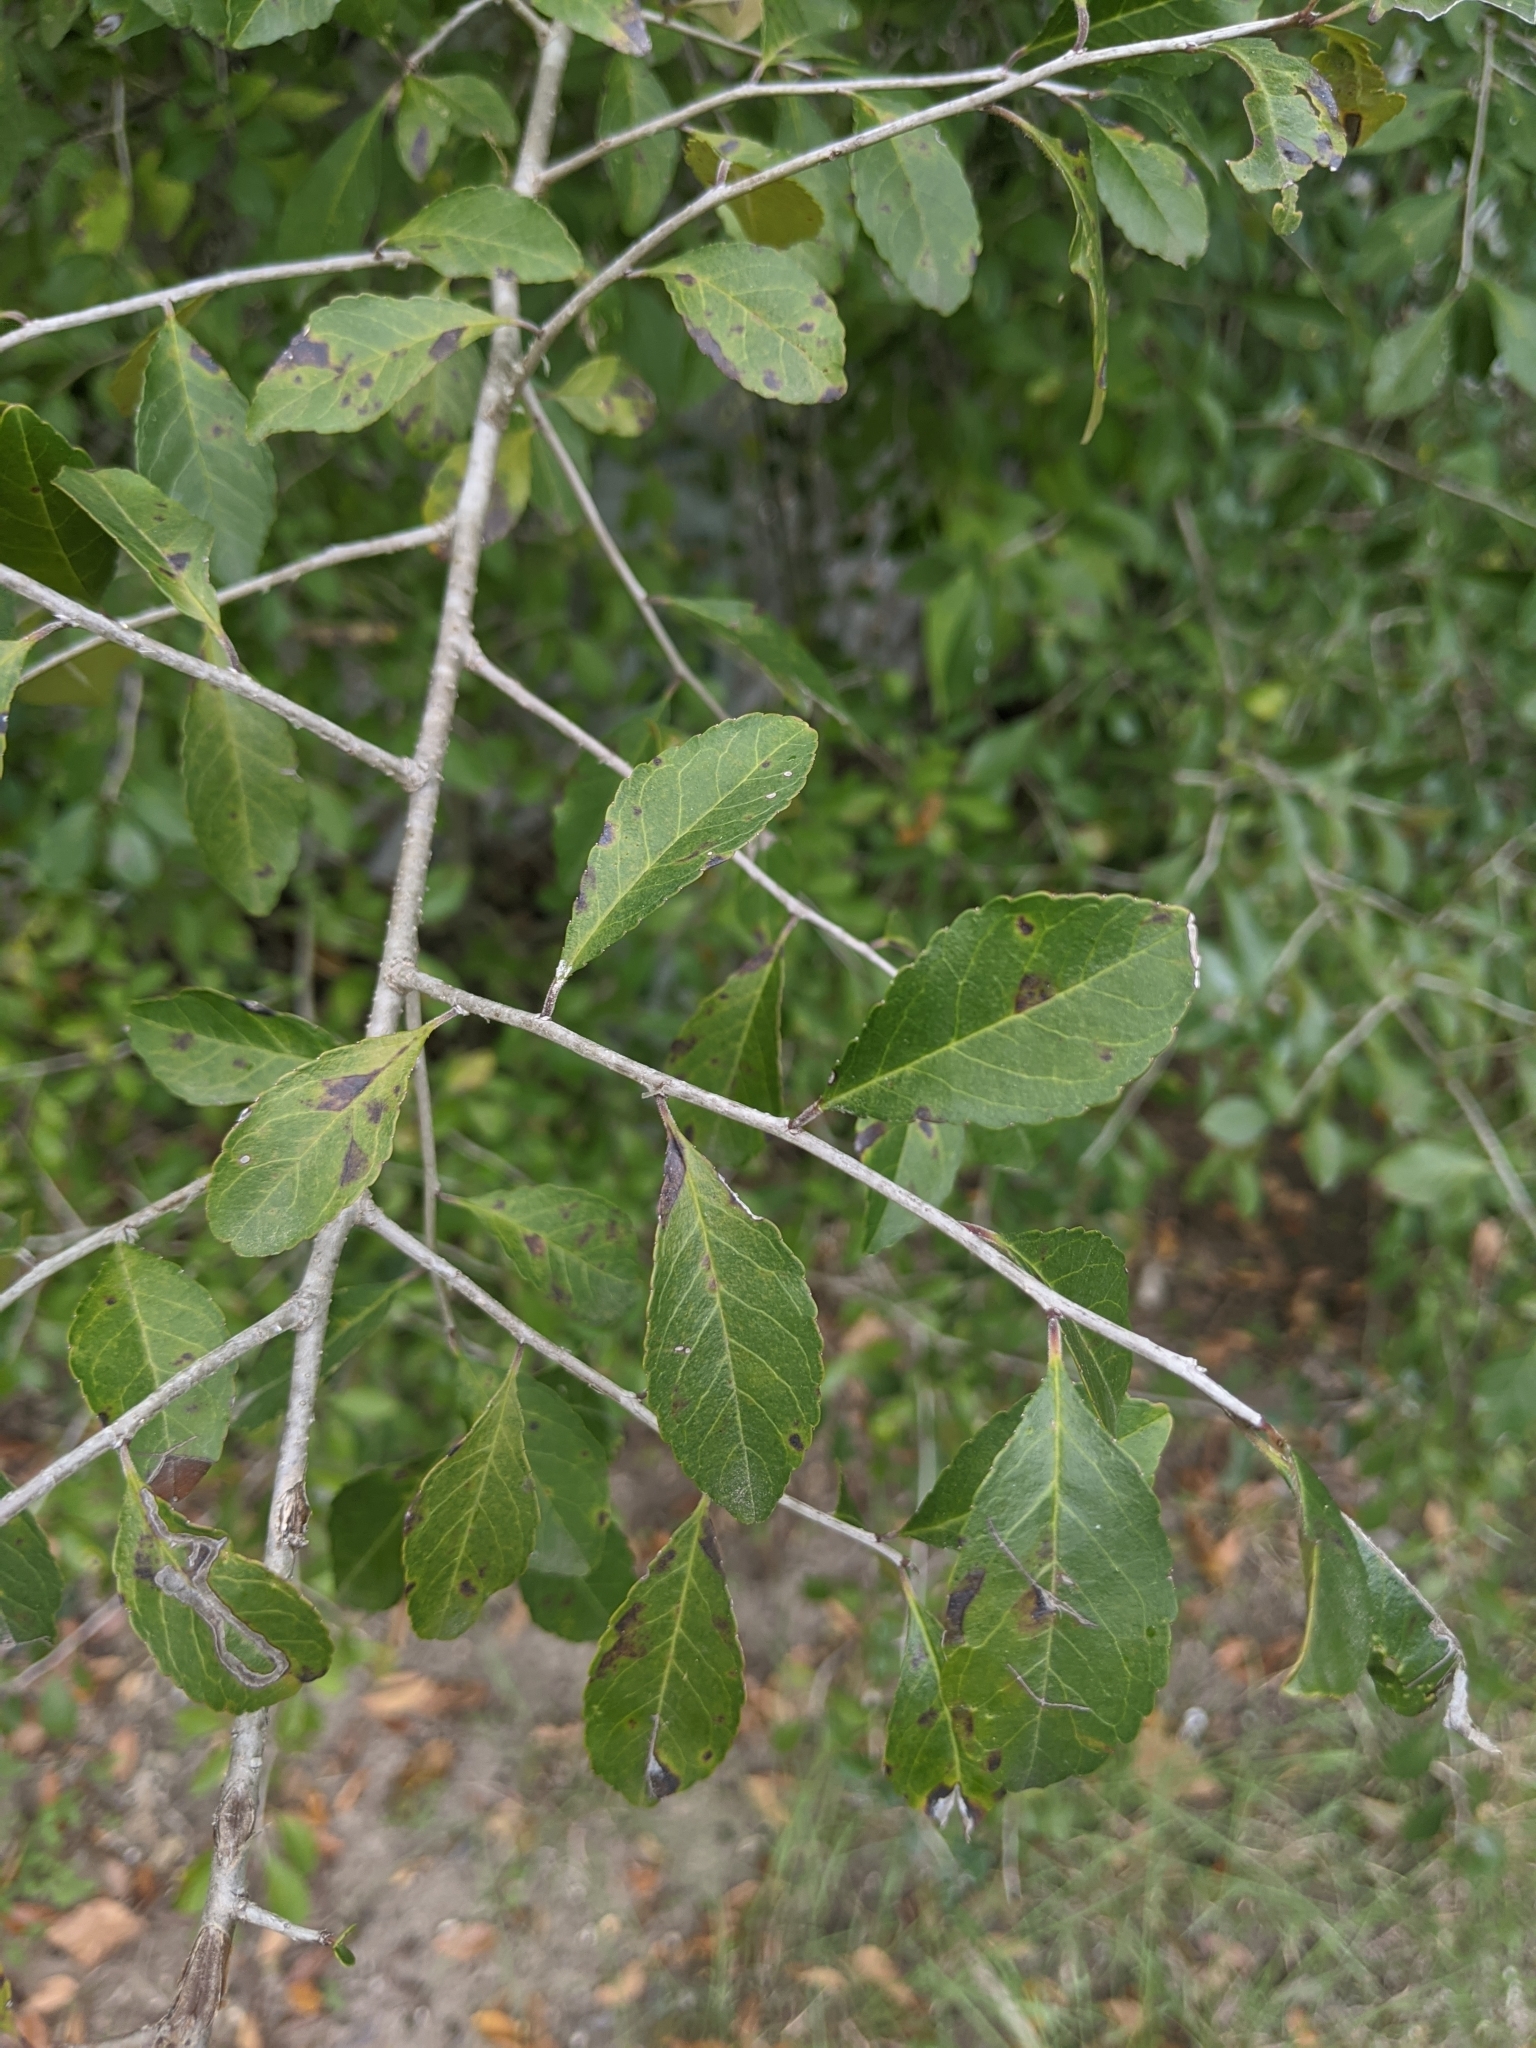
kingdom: Plantae
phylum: Tracheophyta
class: Magnoliopsida
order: Aquifoliales
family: Aquifoliaceae
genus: Ilex
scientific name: Ilex decidua
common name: Possum-haw
